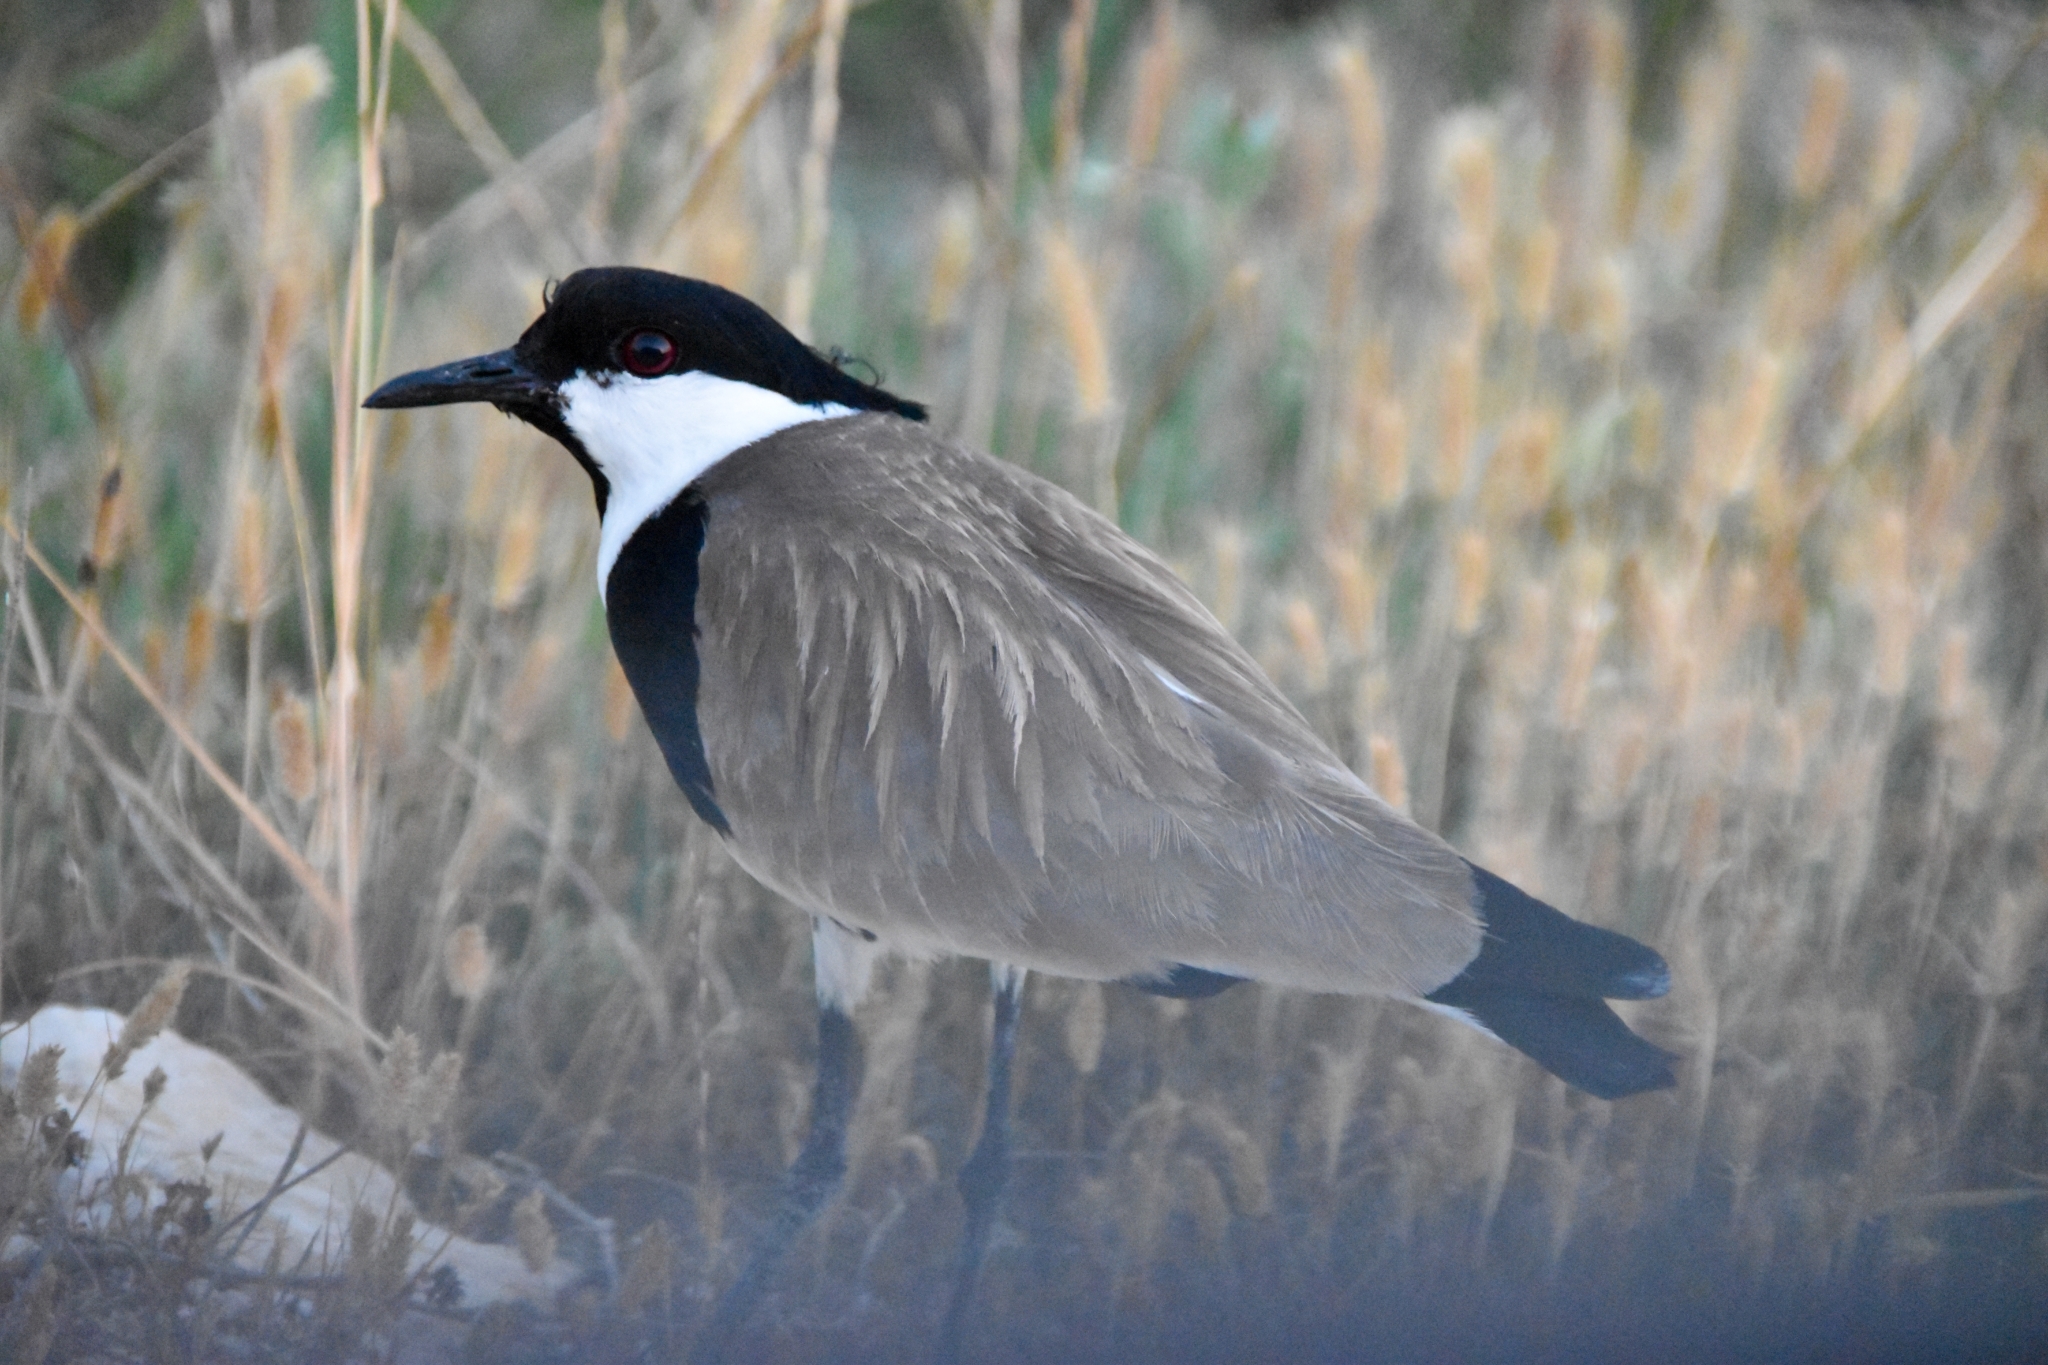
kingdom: Animalia
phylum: Chordata
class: Aves
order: Charadriiformes
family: Charadriidae
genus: Vanellus
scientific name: Vanellus spinosus
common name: Spur-winged lapwing
